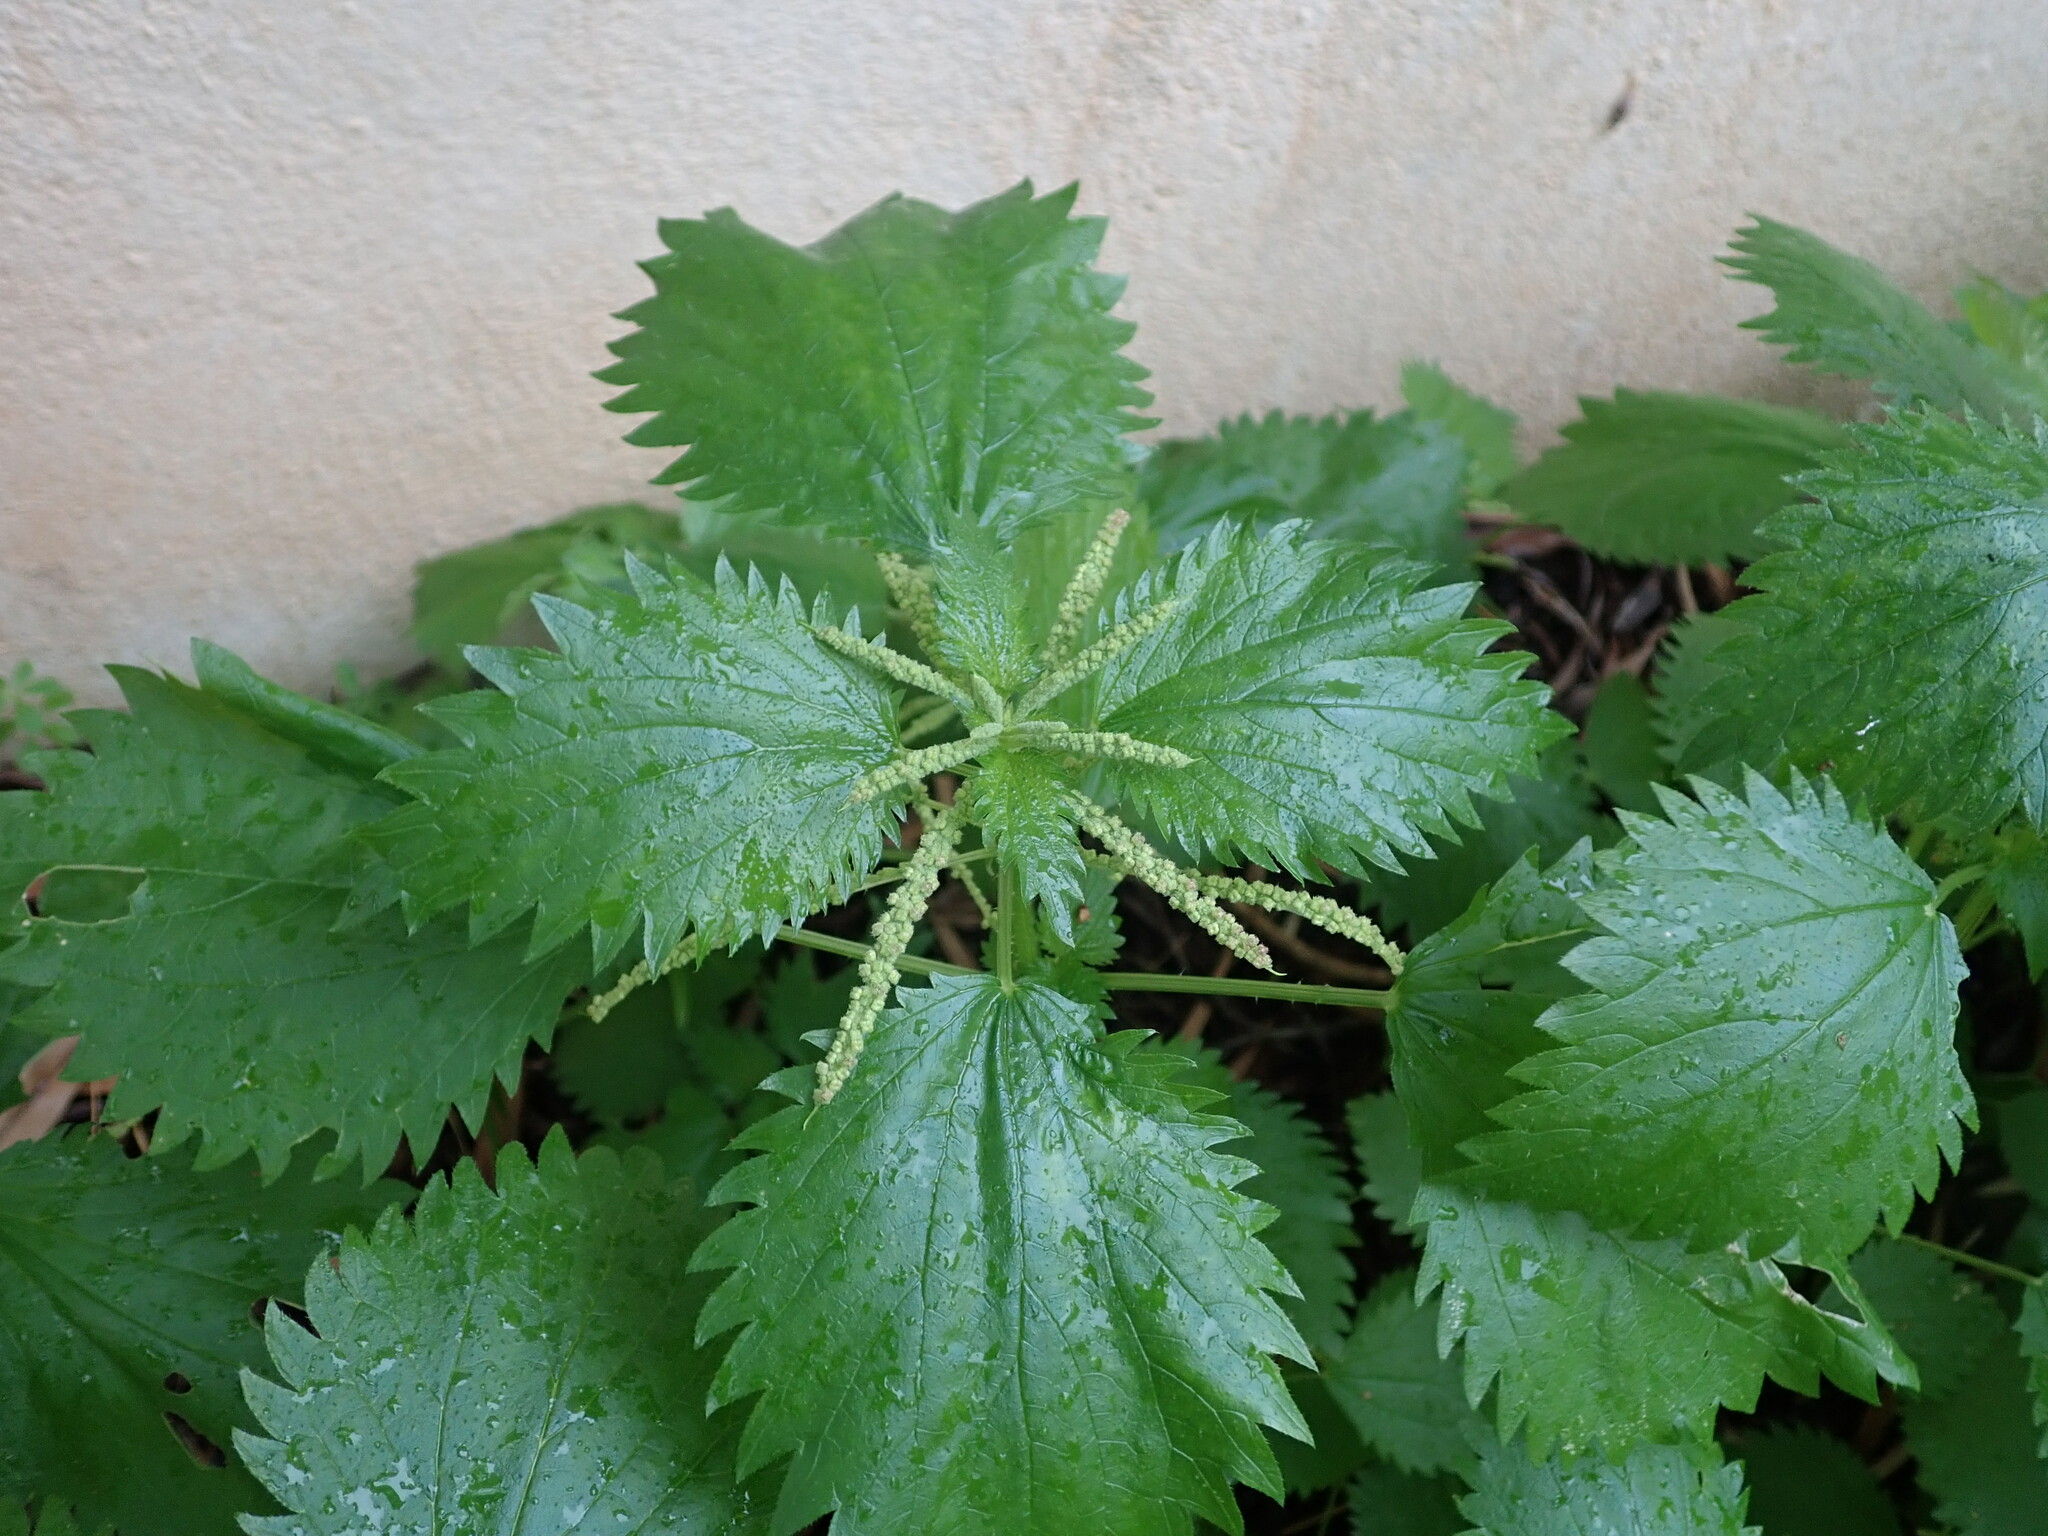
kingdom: Plantae
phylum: Tracheophyta
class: Magnoliopsida
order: Rosales
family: Urticaceae
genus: Urtica
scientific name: Urtica membranacea
